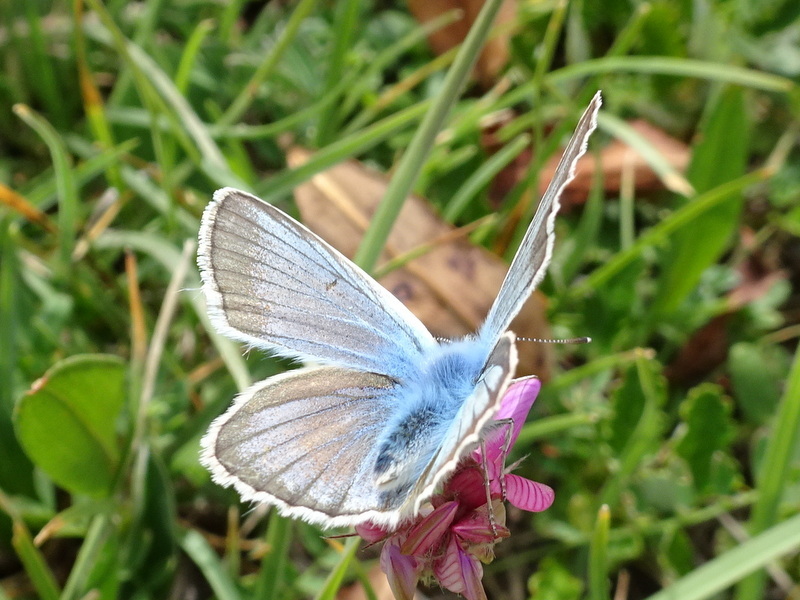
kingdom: Animalia
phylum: Arthropoda
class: Insecta
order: Lepidoptera
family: Lycaenidae
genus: Agrodiaetus
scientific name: Agrodiaetus damon
